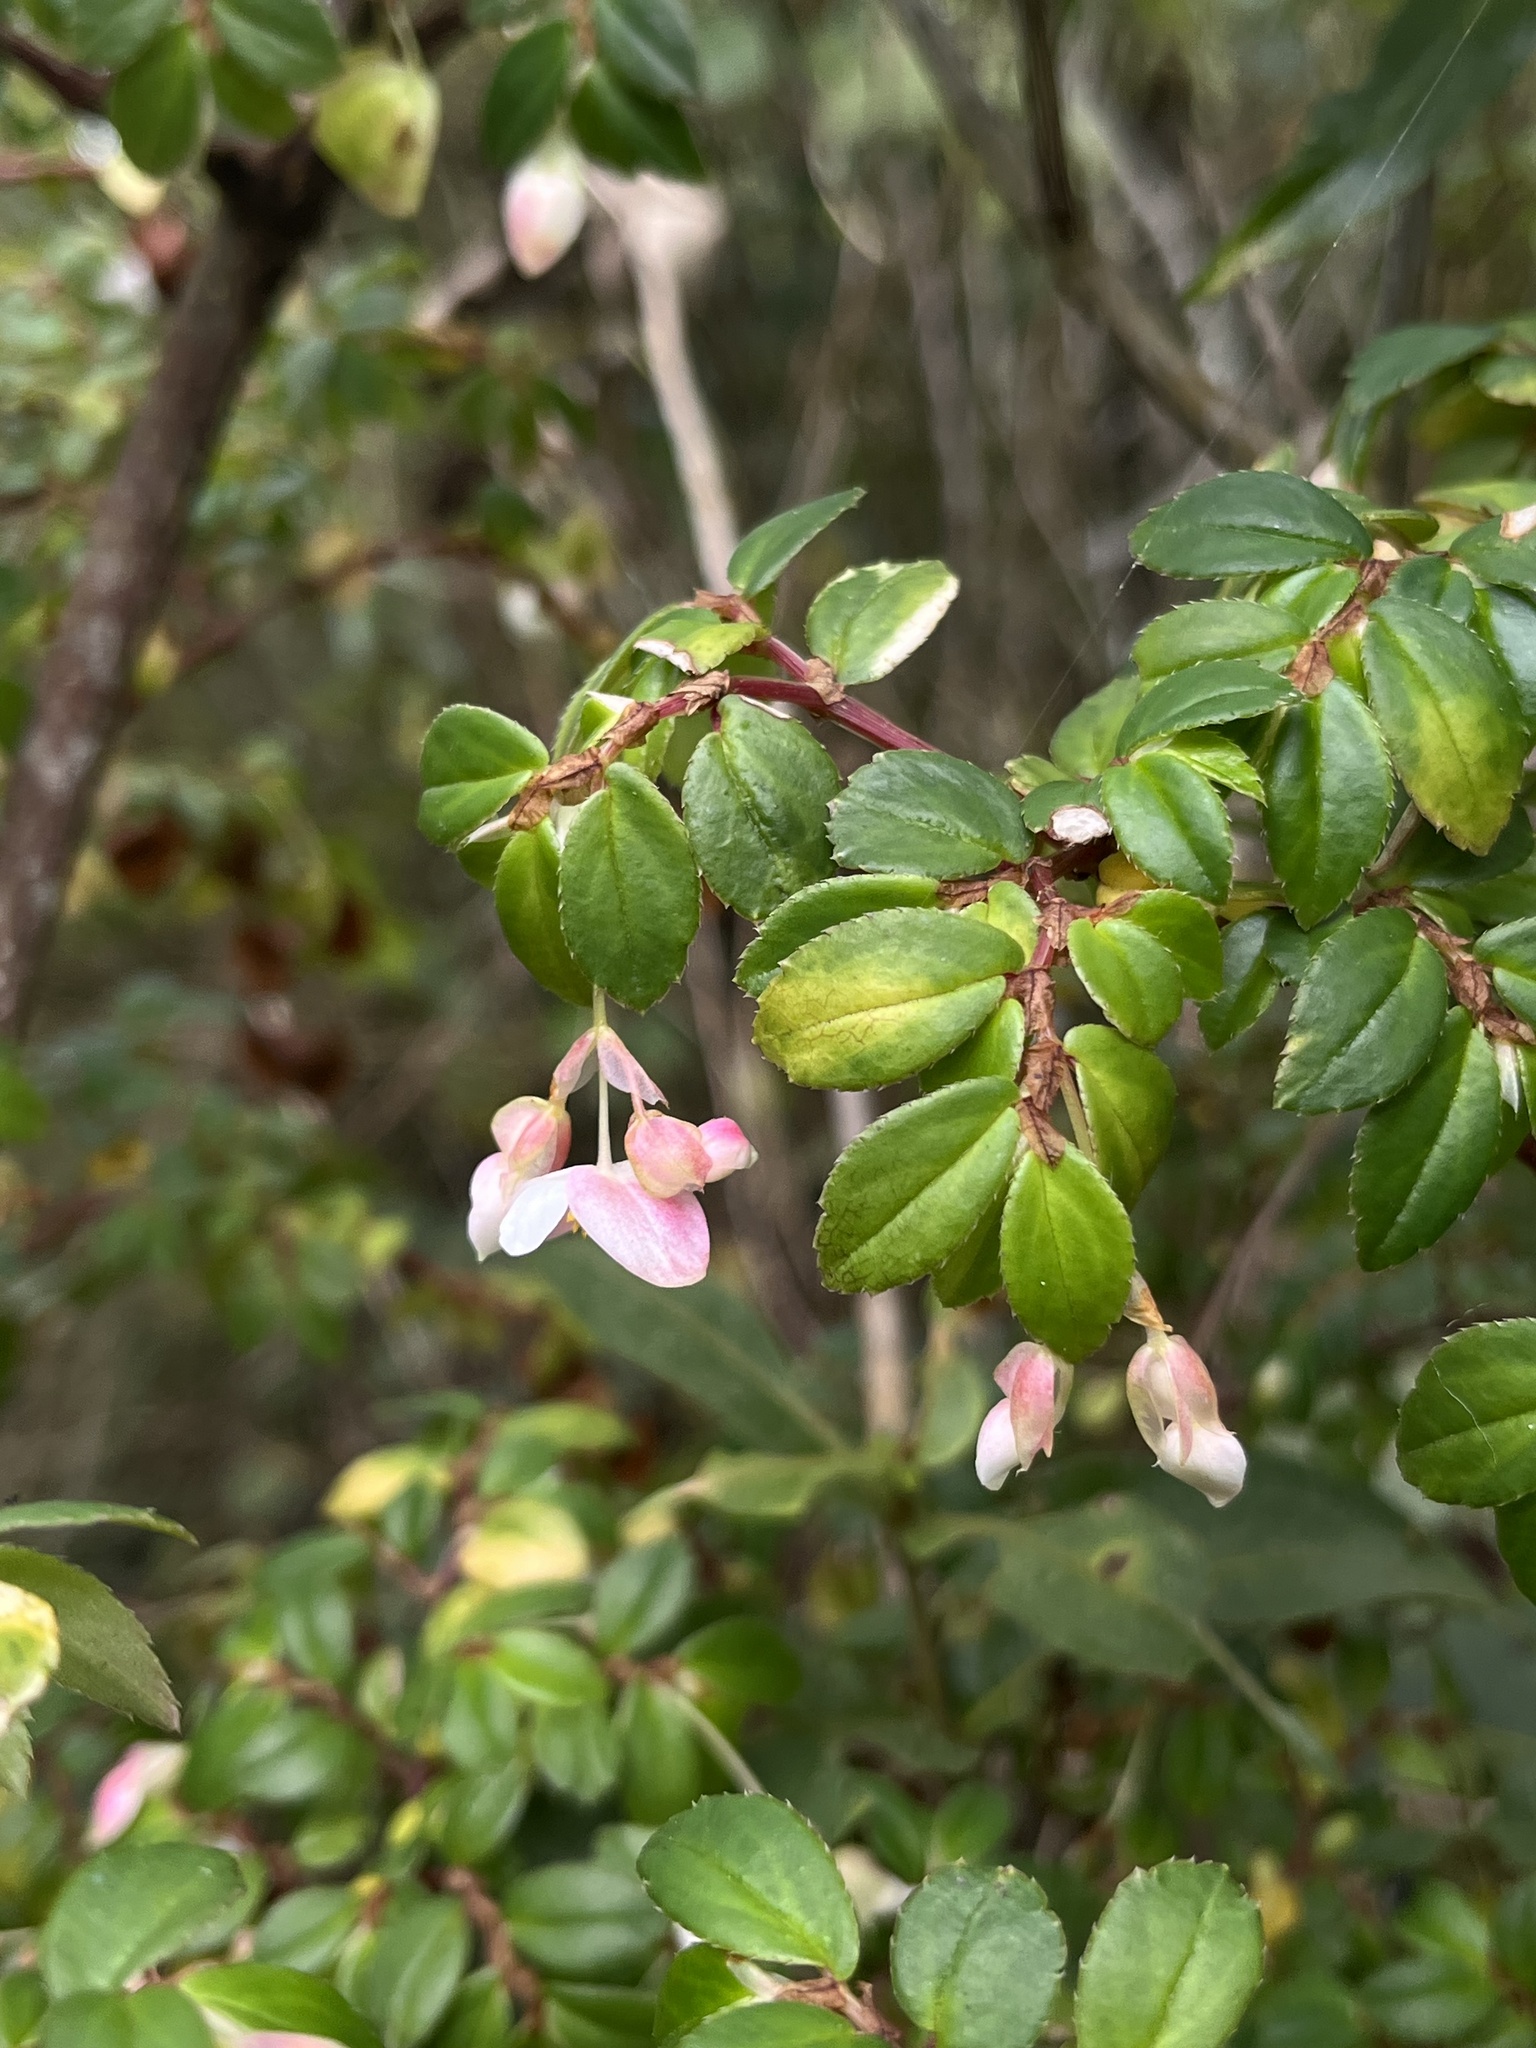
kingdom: Plantae
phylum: Tracheophyta
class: Magnoliopsida
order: Cucurbitales
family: Begoniaceae
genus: Begonia
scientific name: Begonia foliosa
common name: Fern begonia
